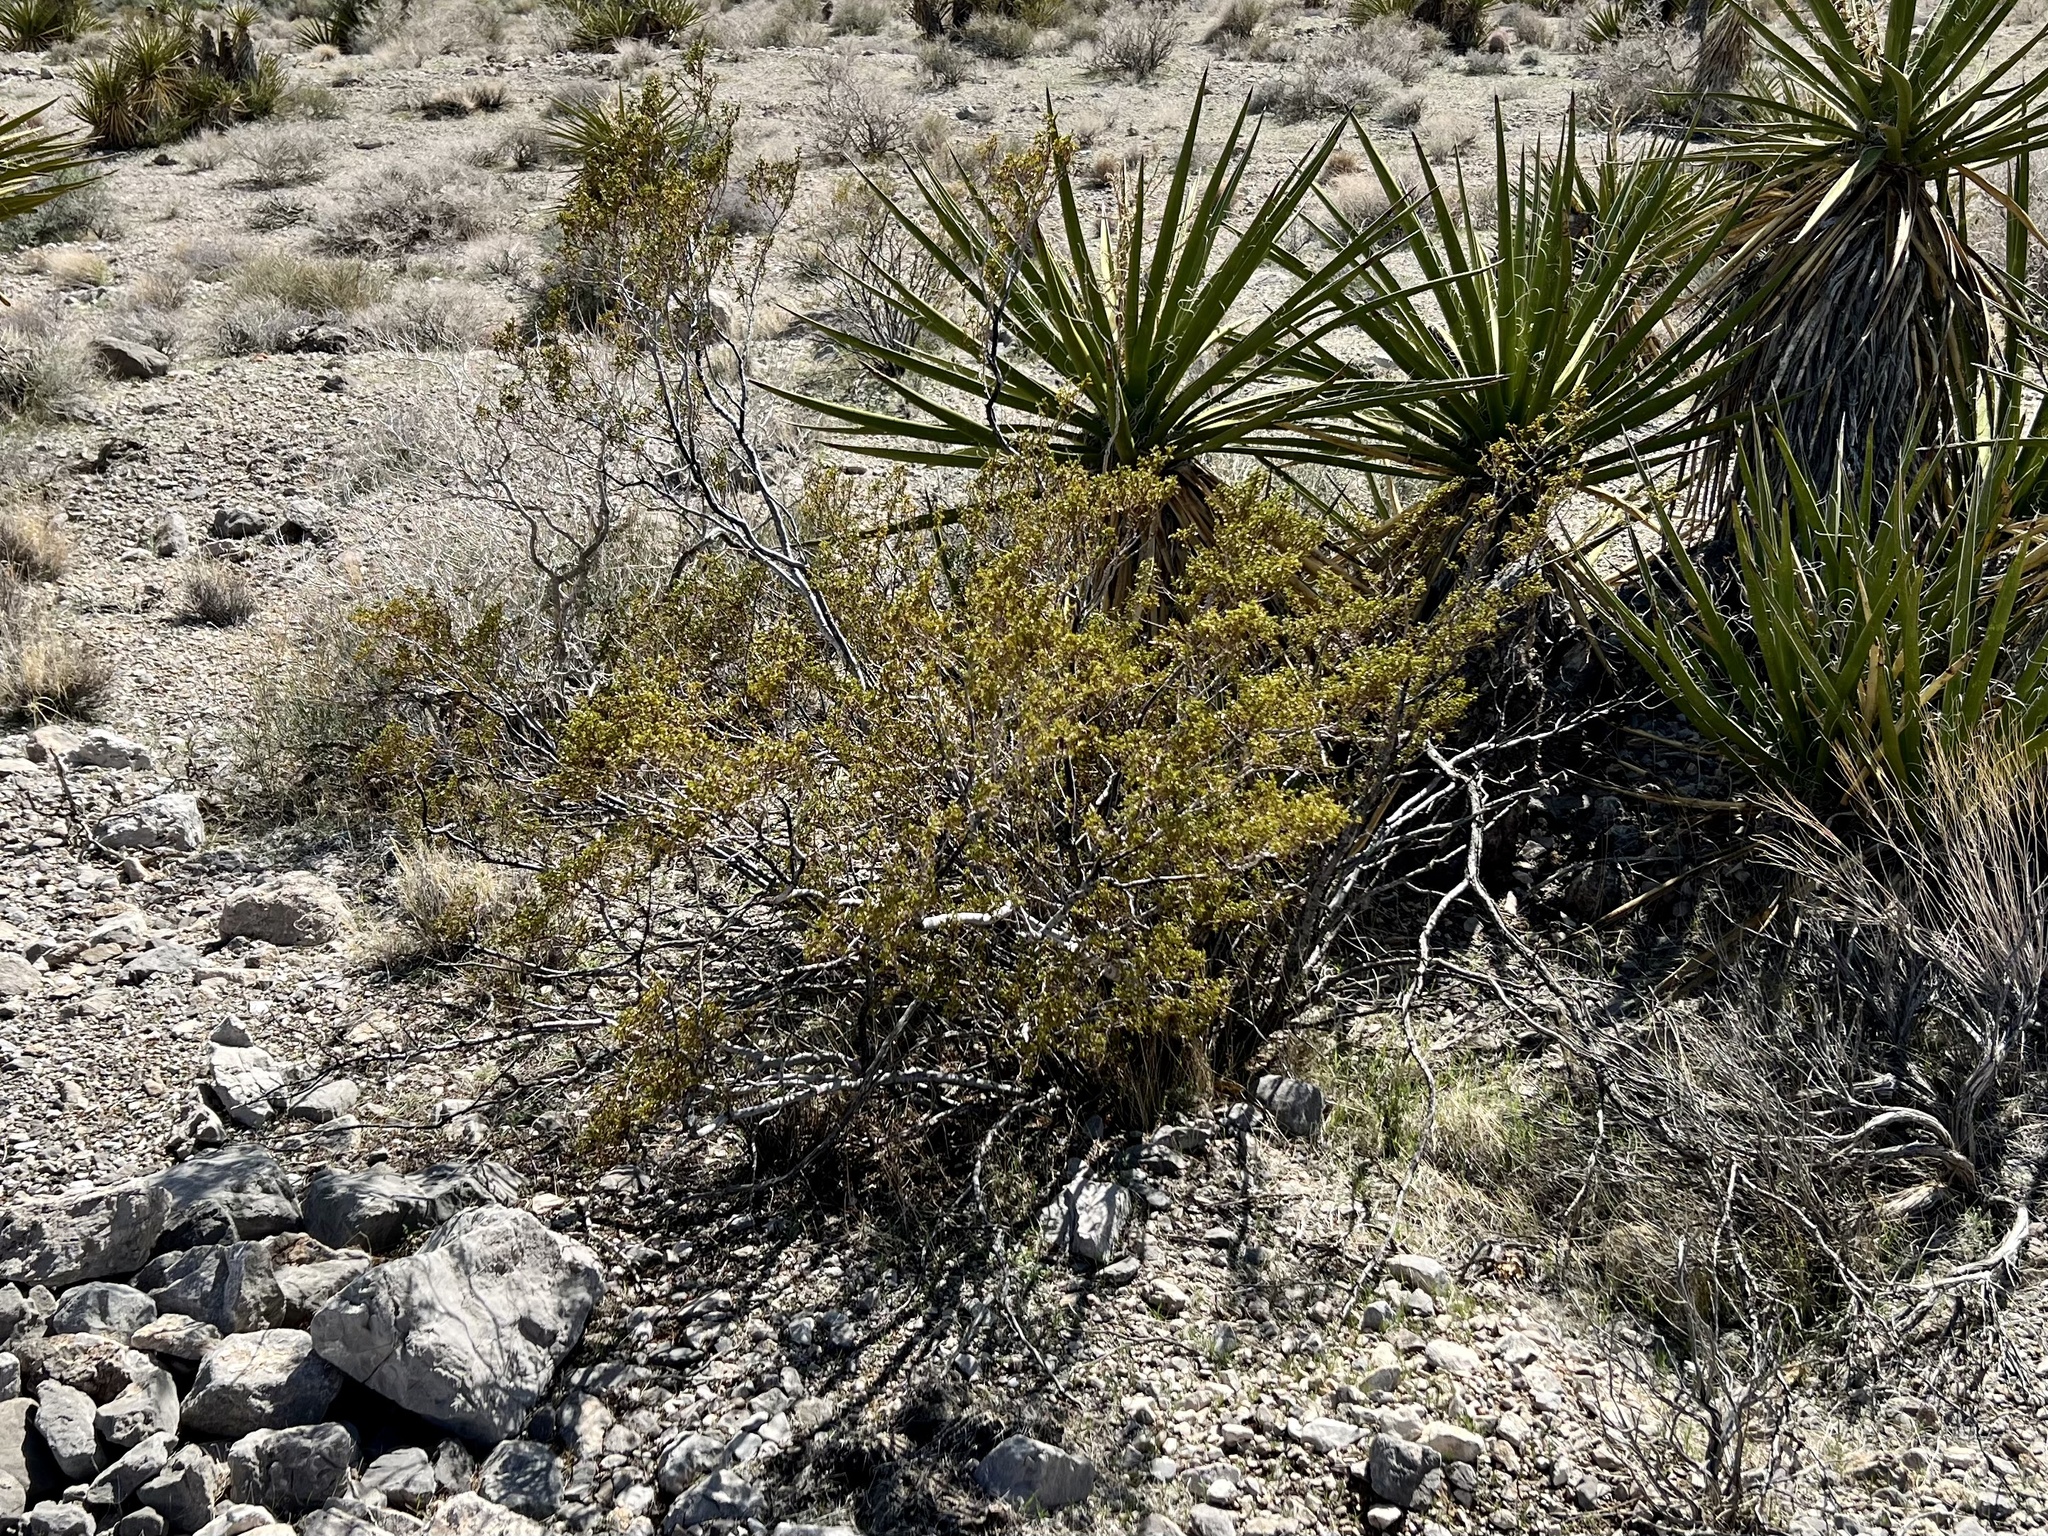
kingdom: Plantae
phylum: Tracheophyta
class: Magnoliopsida
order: Zygophyllales
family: Zygophyllaceae
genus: Larrea
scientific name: Larrea tridentata
